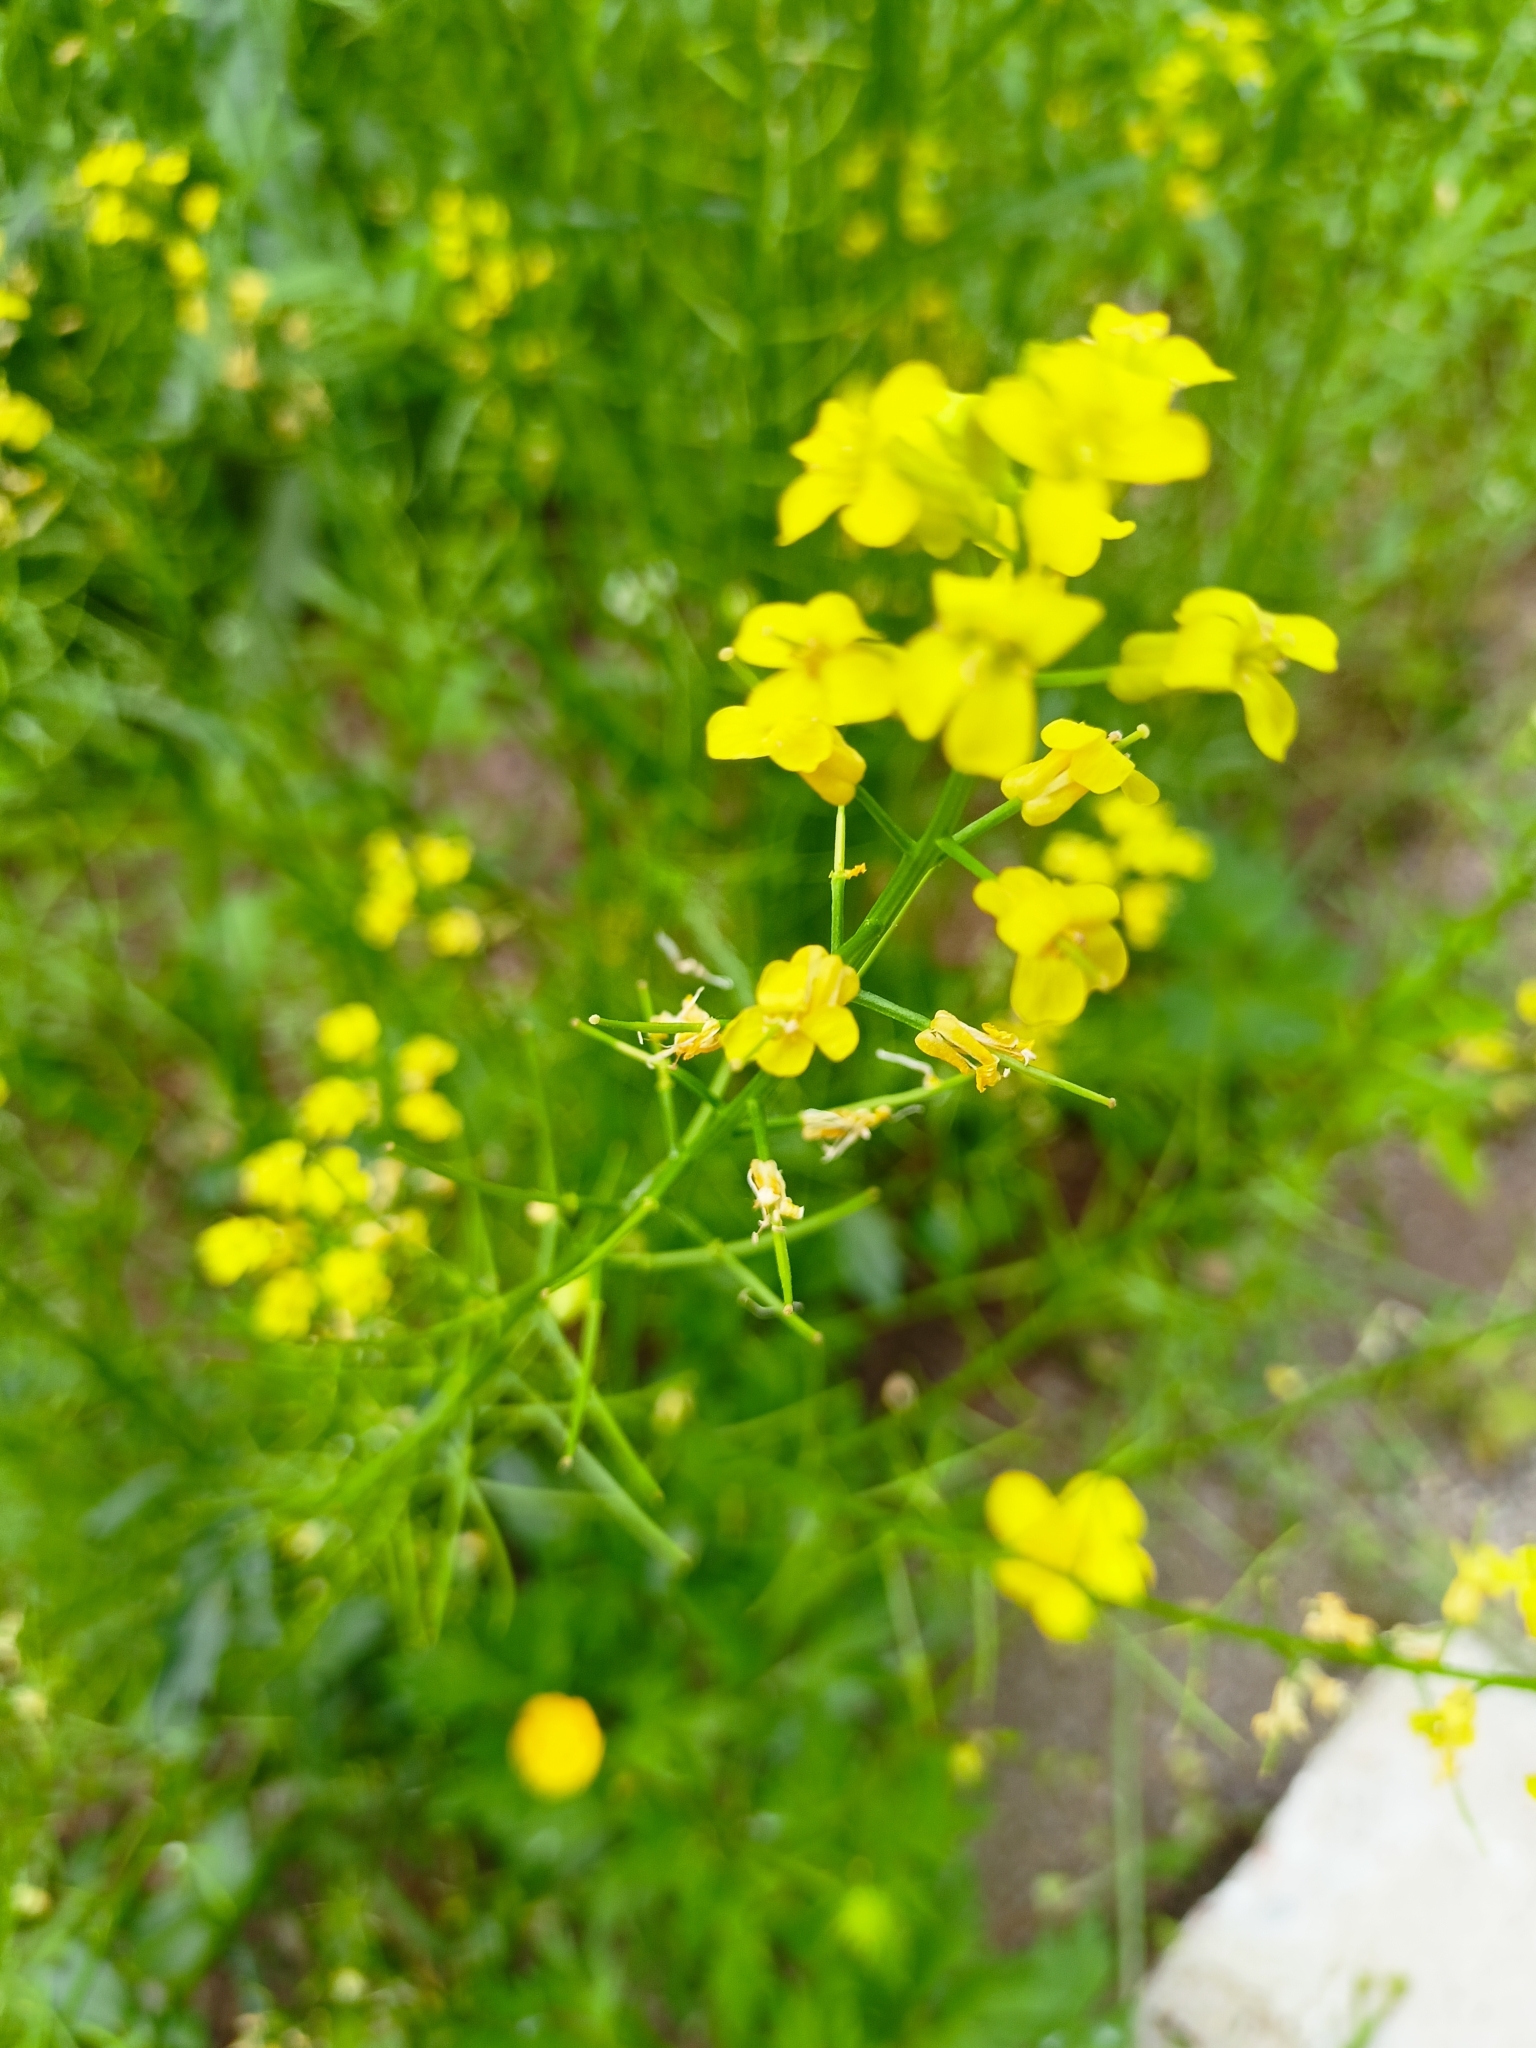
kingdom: Plantae
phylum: Tracheophyta
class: Magnoliopsida
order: Brassicales
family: Brassicaceae
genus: Sisymbrium
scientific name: Sisymbrium loeselii
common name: False london-rocket
